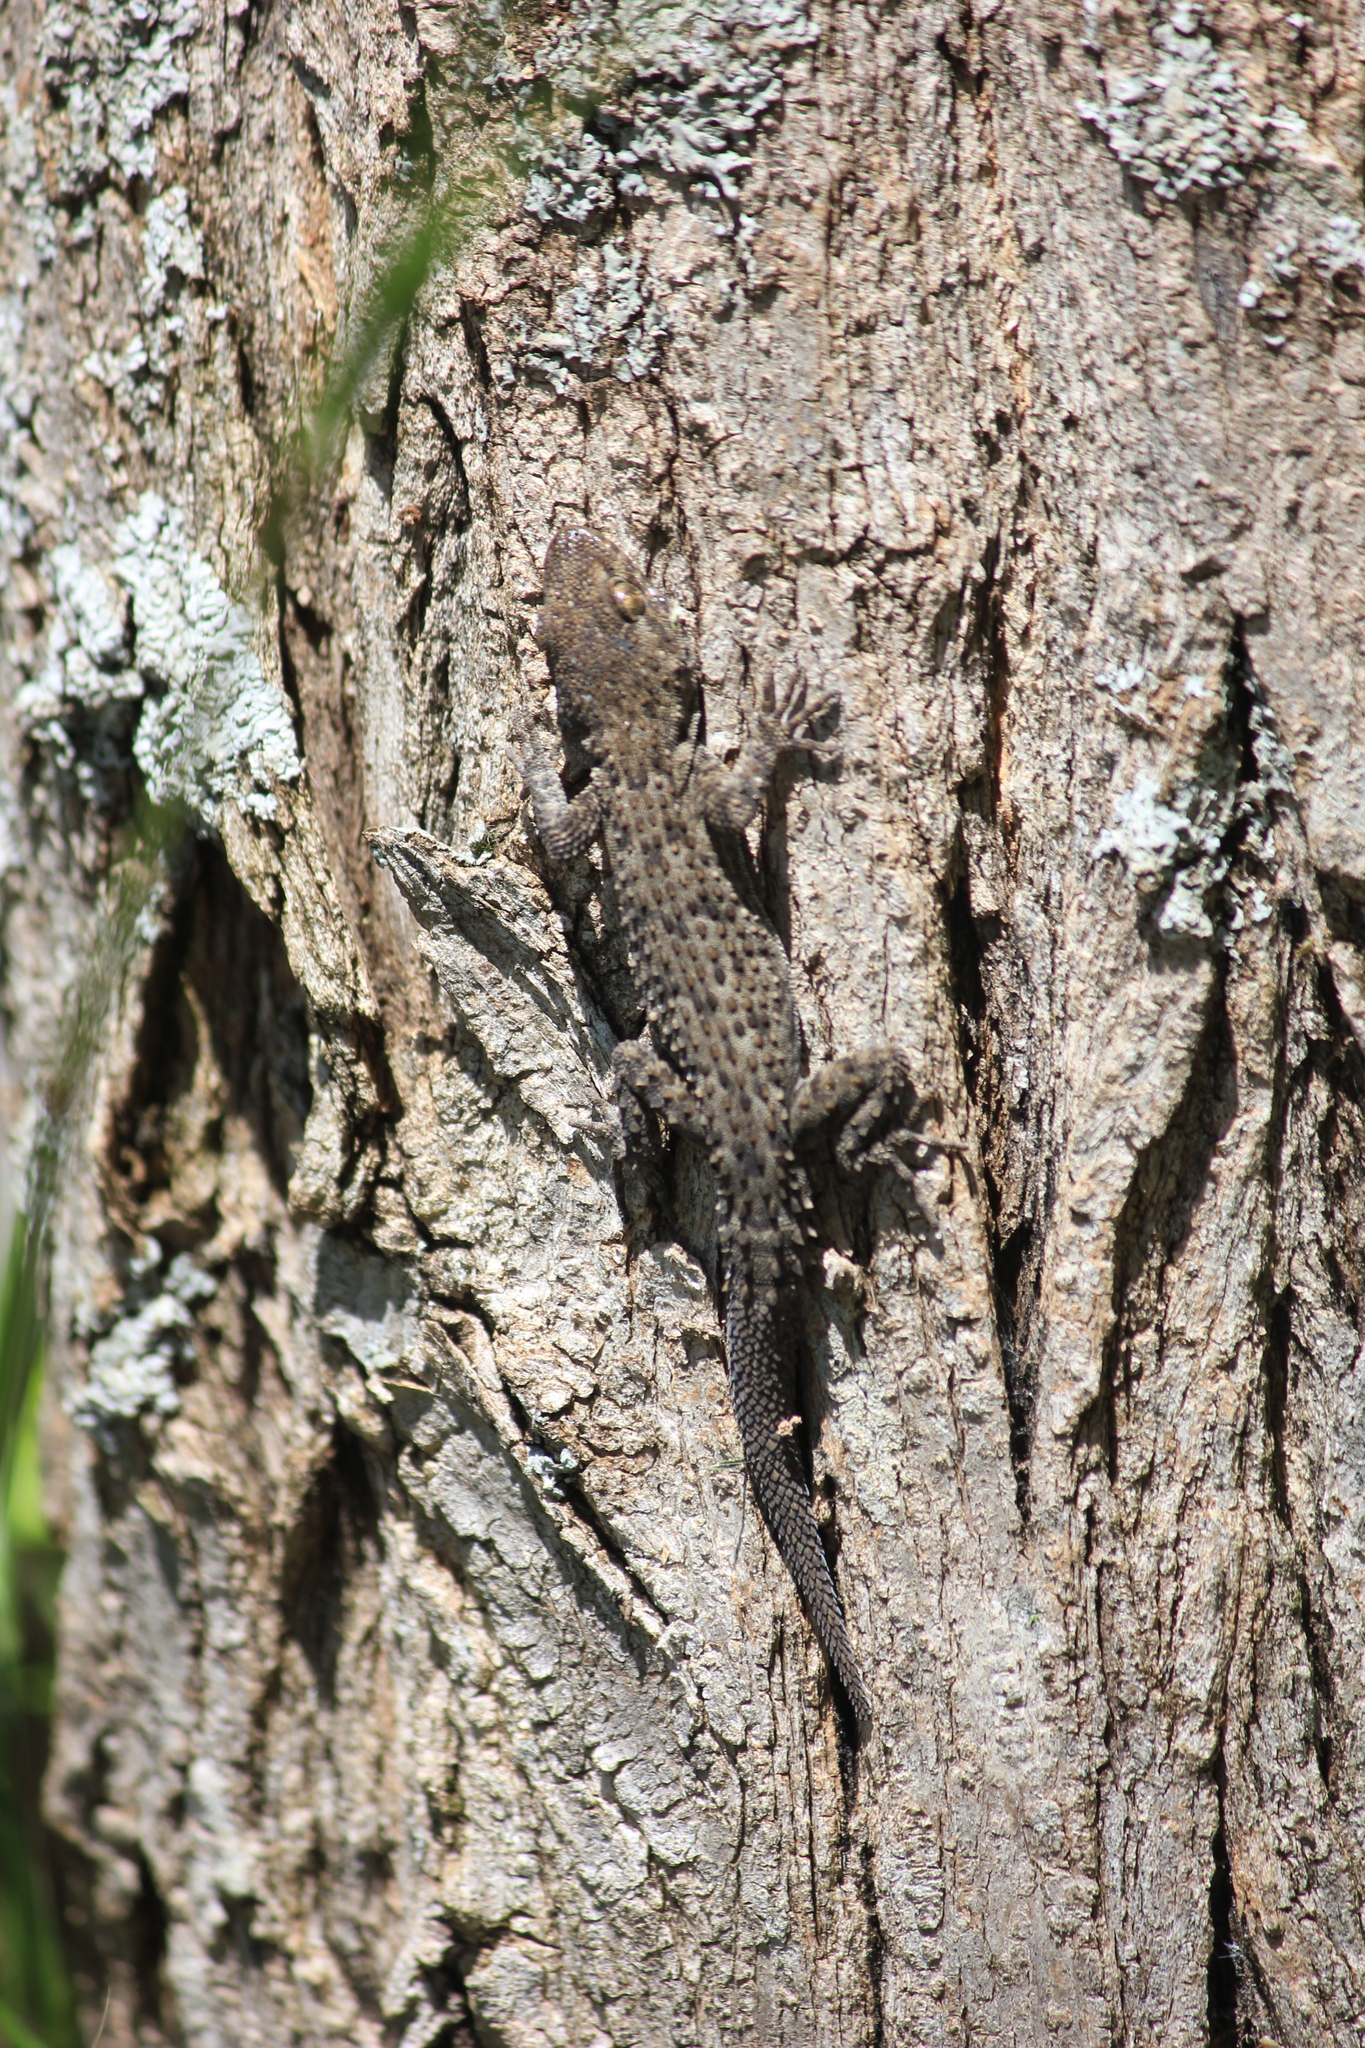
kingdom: Animalia
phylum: Chordata
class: Squamata
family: Gekkonidae
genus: Mediodactylus
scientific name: Mediodactylus kotschyi
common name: Kotschy's gecko
